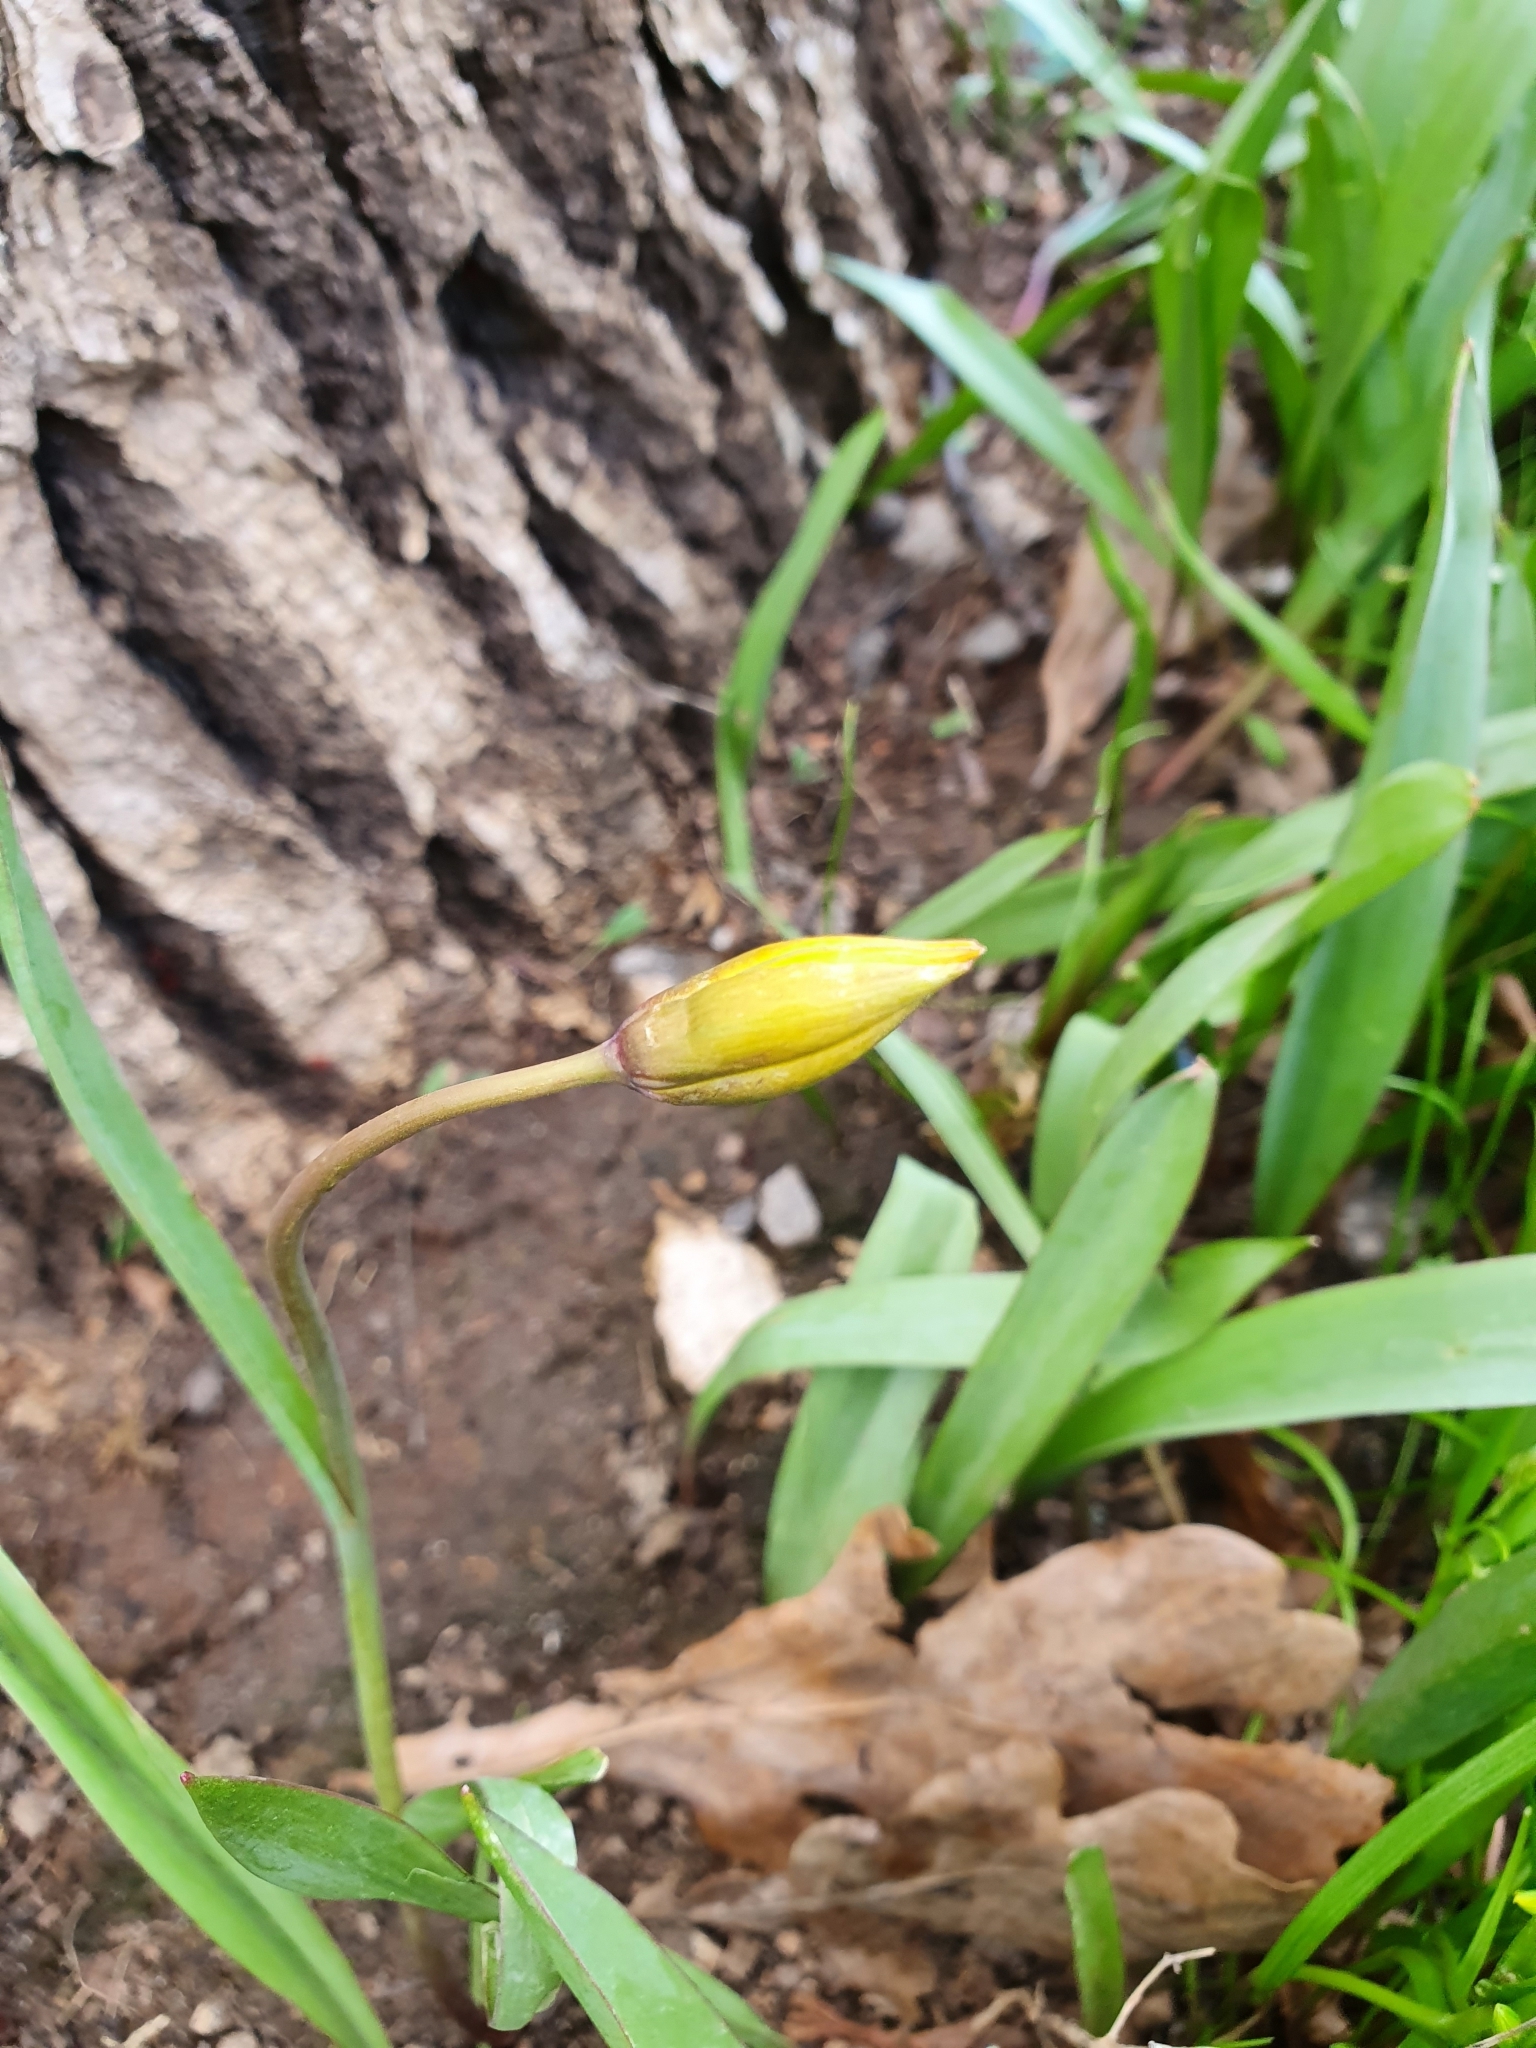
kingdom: Plantae
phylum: Tracheophyta
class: Liliopsida
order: Liliales
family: Liliaceae
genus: Tulipa
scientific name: Tulipa sylvestris
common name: Wild tulip
